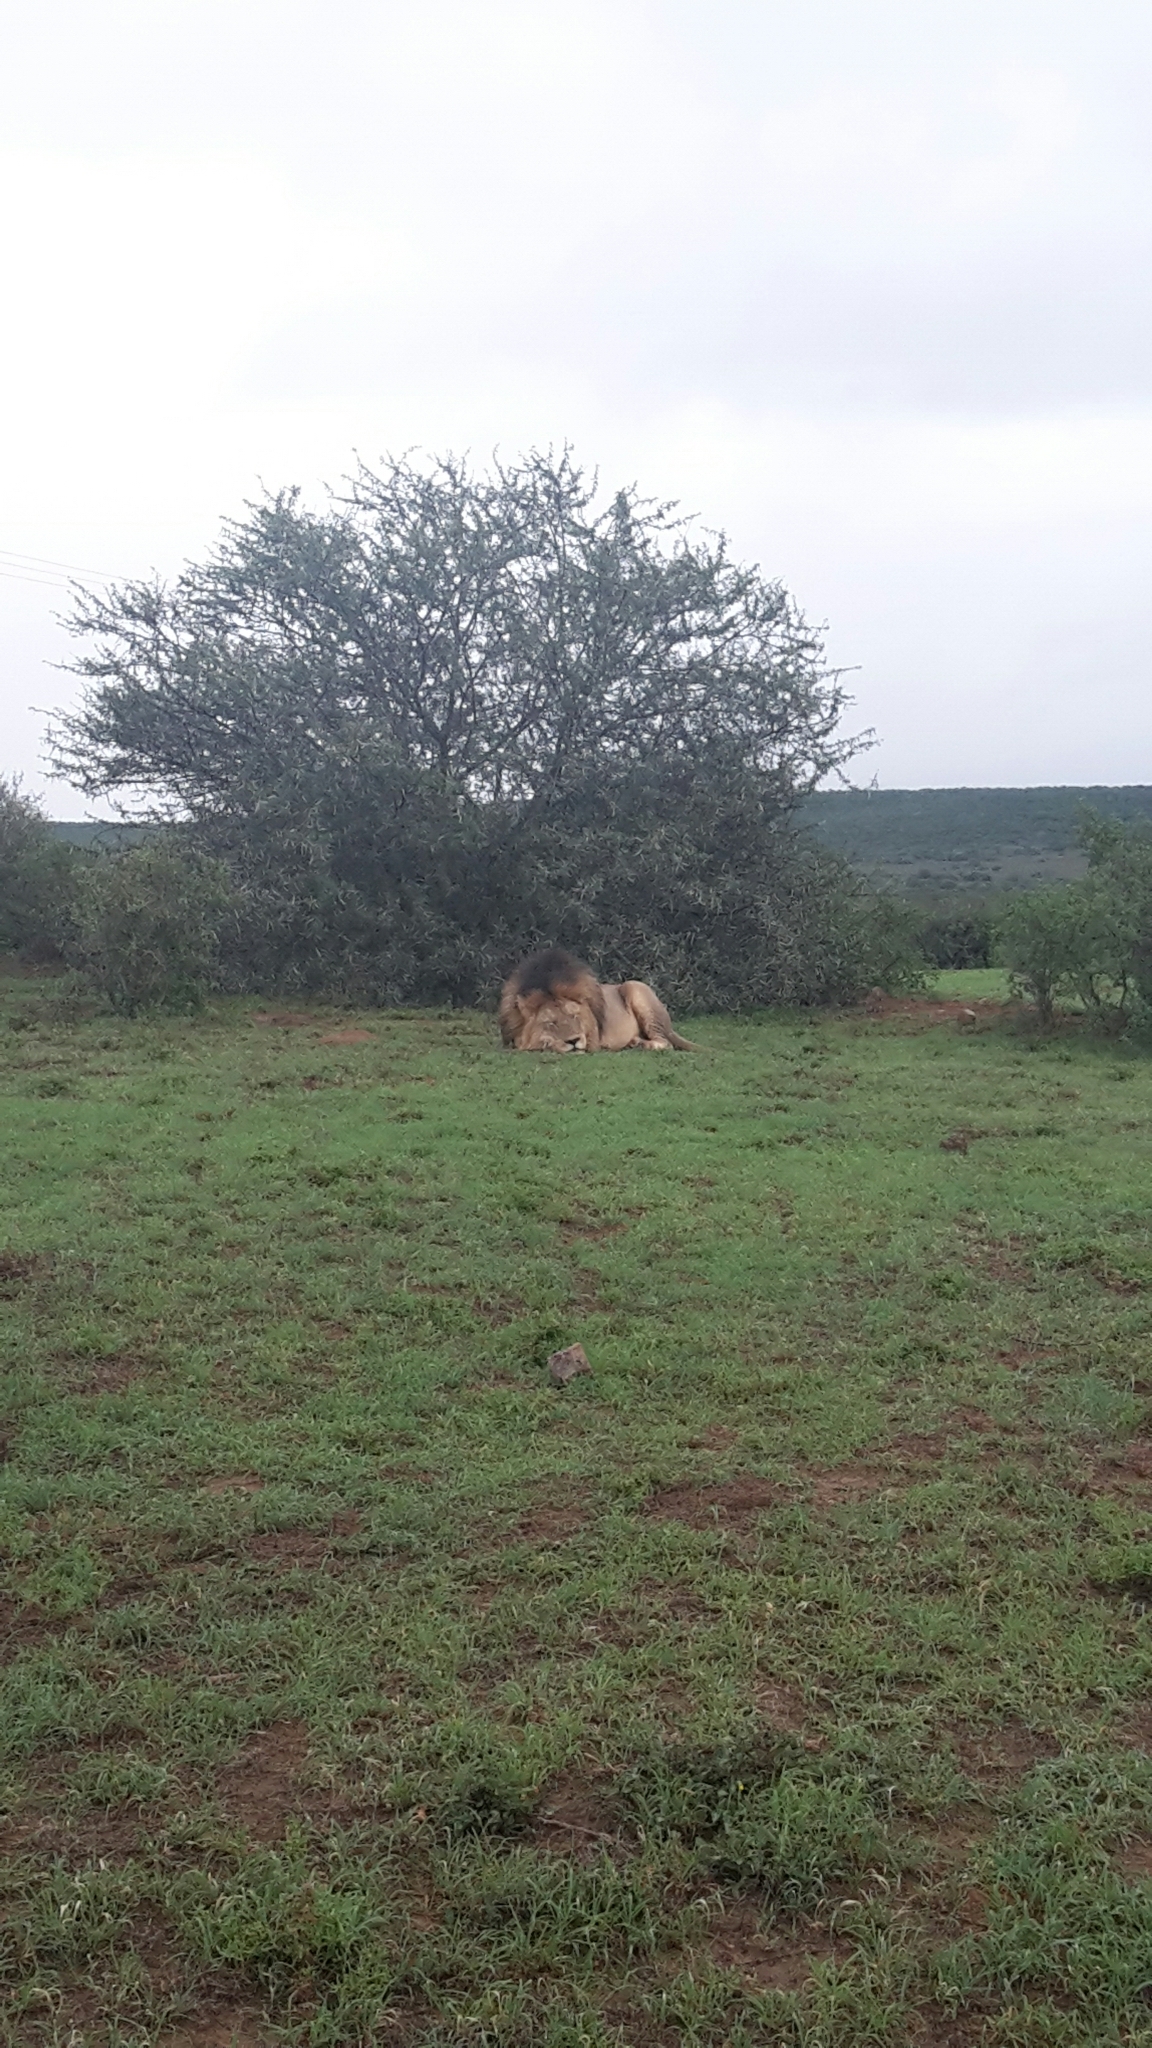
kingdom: Animalia
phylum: Chordata
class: Mammalia
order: Carnivora
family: Felidae
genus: Panthera
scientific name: Panthera leo
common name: Lion
